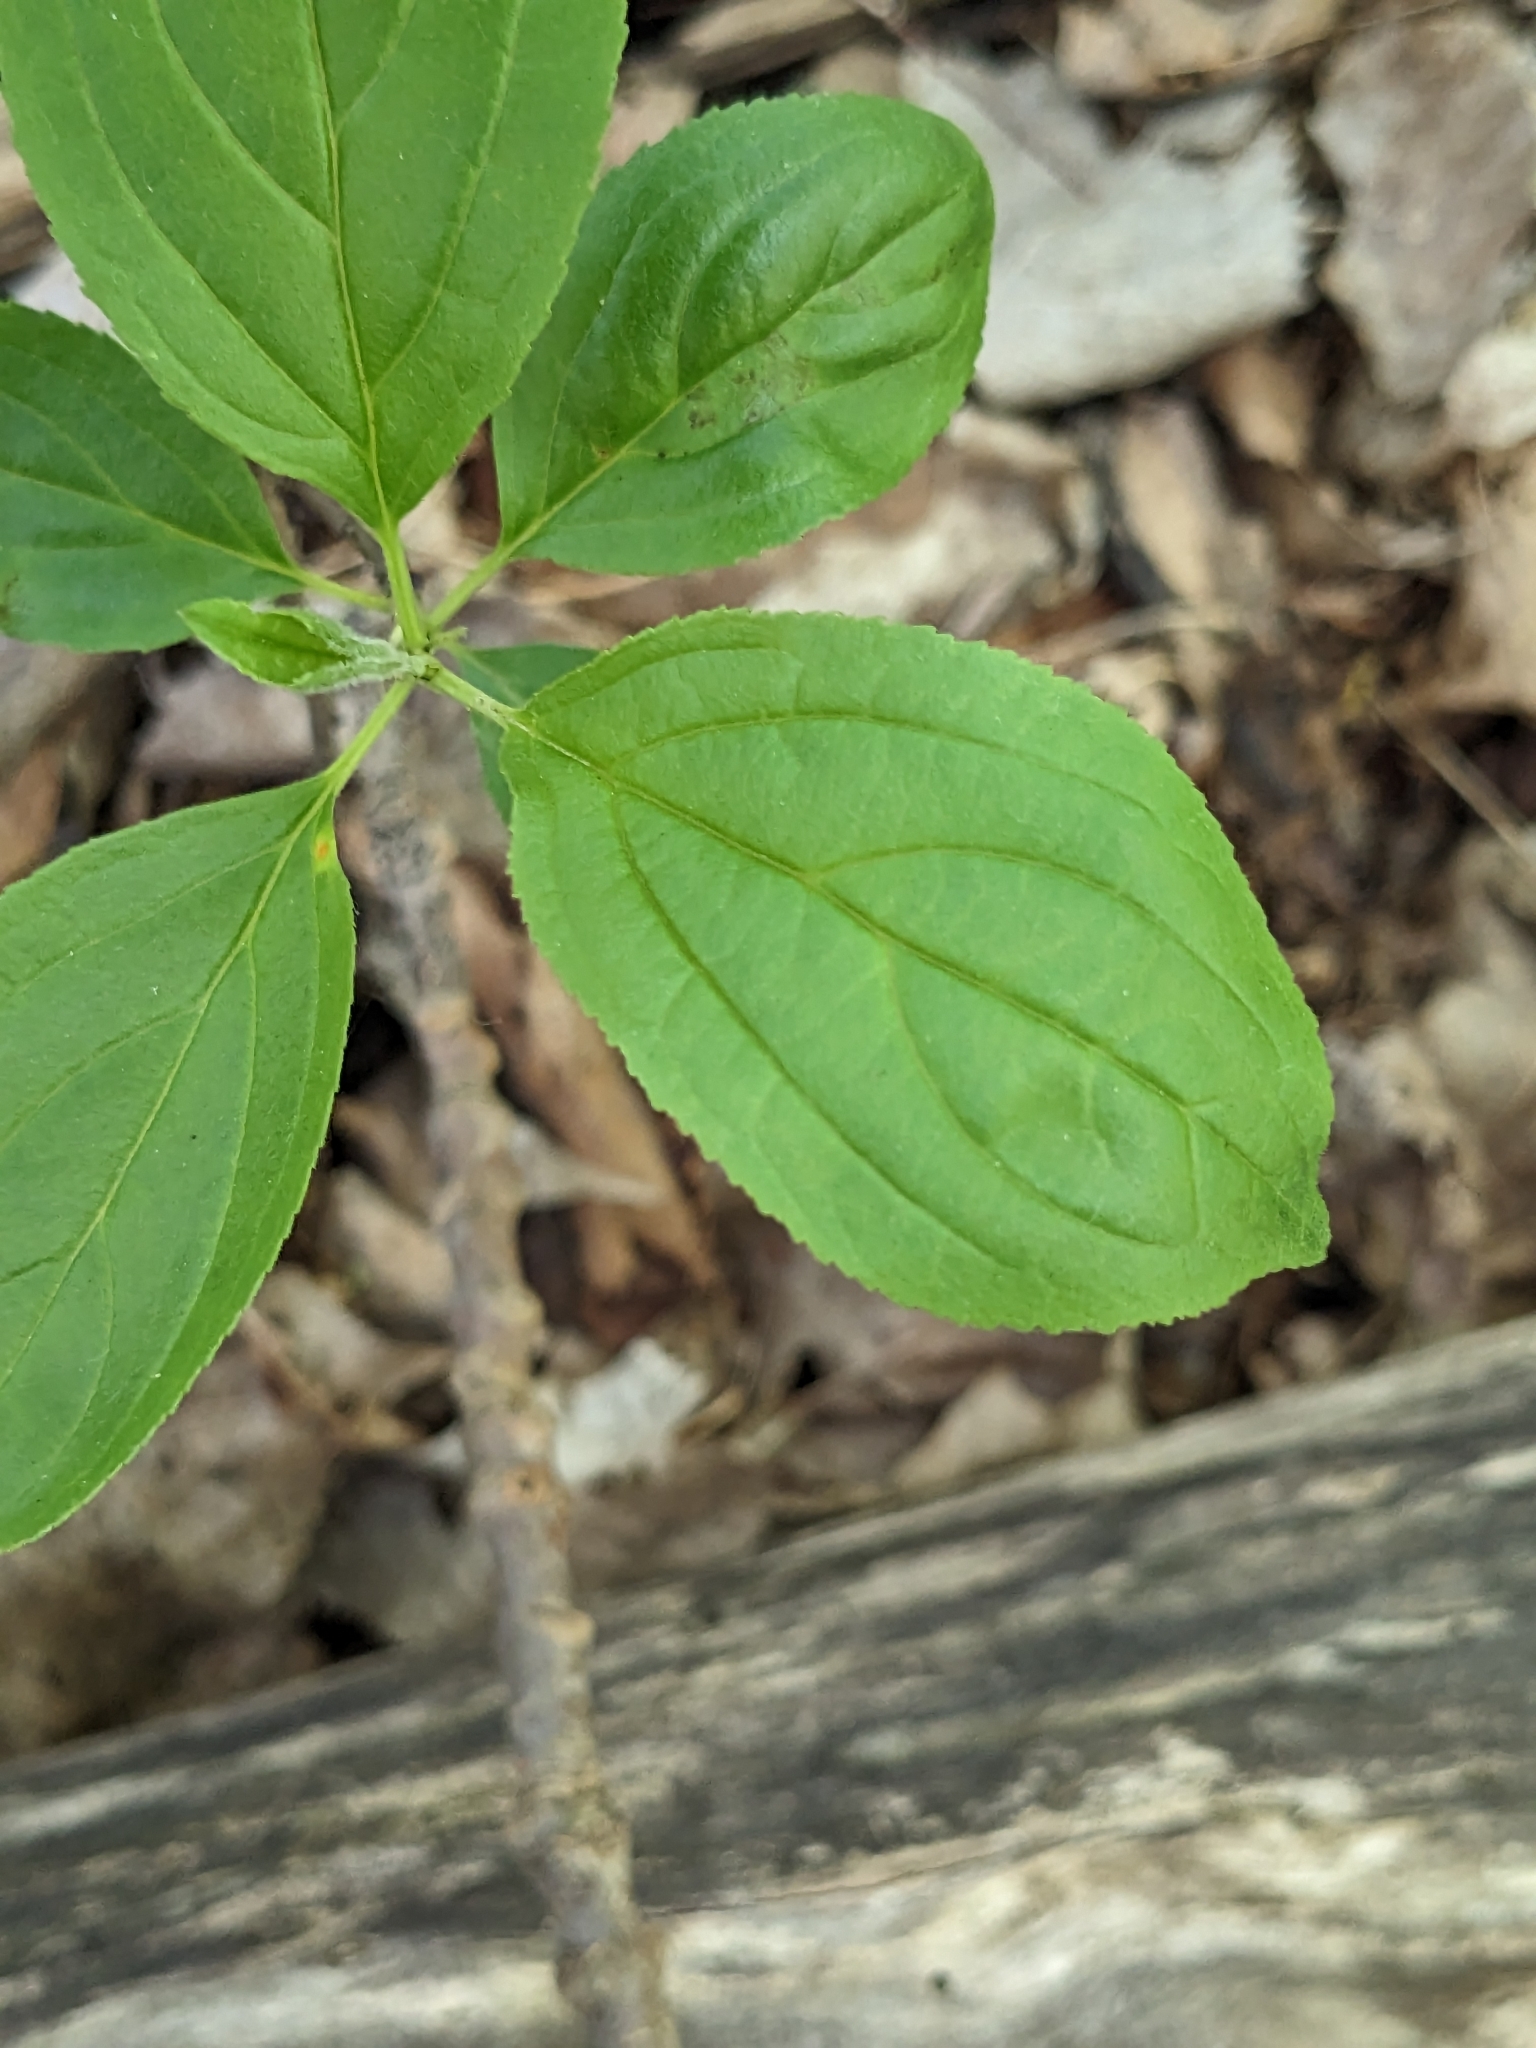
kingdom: Plantae
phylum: Tracheophyta
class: Magnoliopsida
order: Rosales
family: Rhamnaceae
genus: Rhamnus
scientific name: Rhamnus cathartica
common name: Common buckthorn
